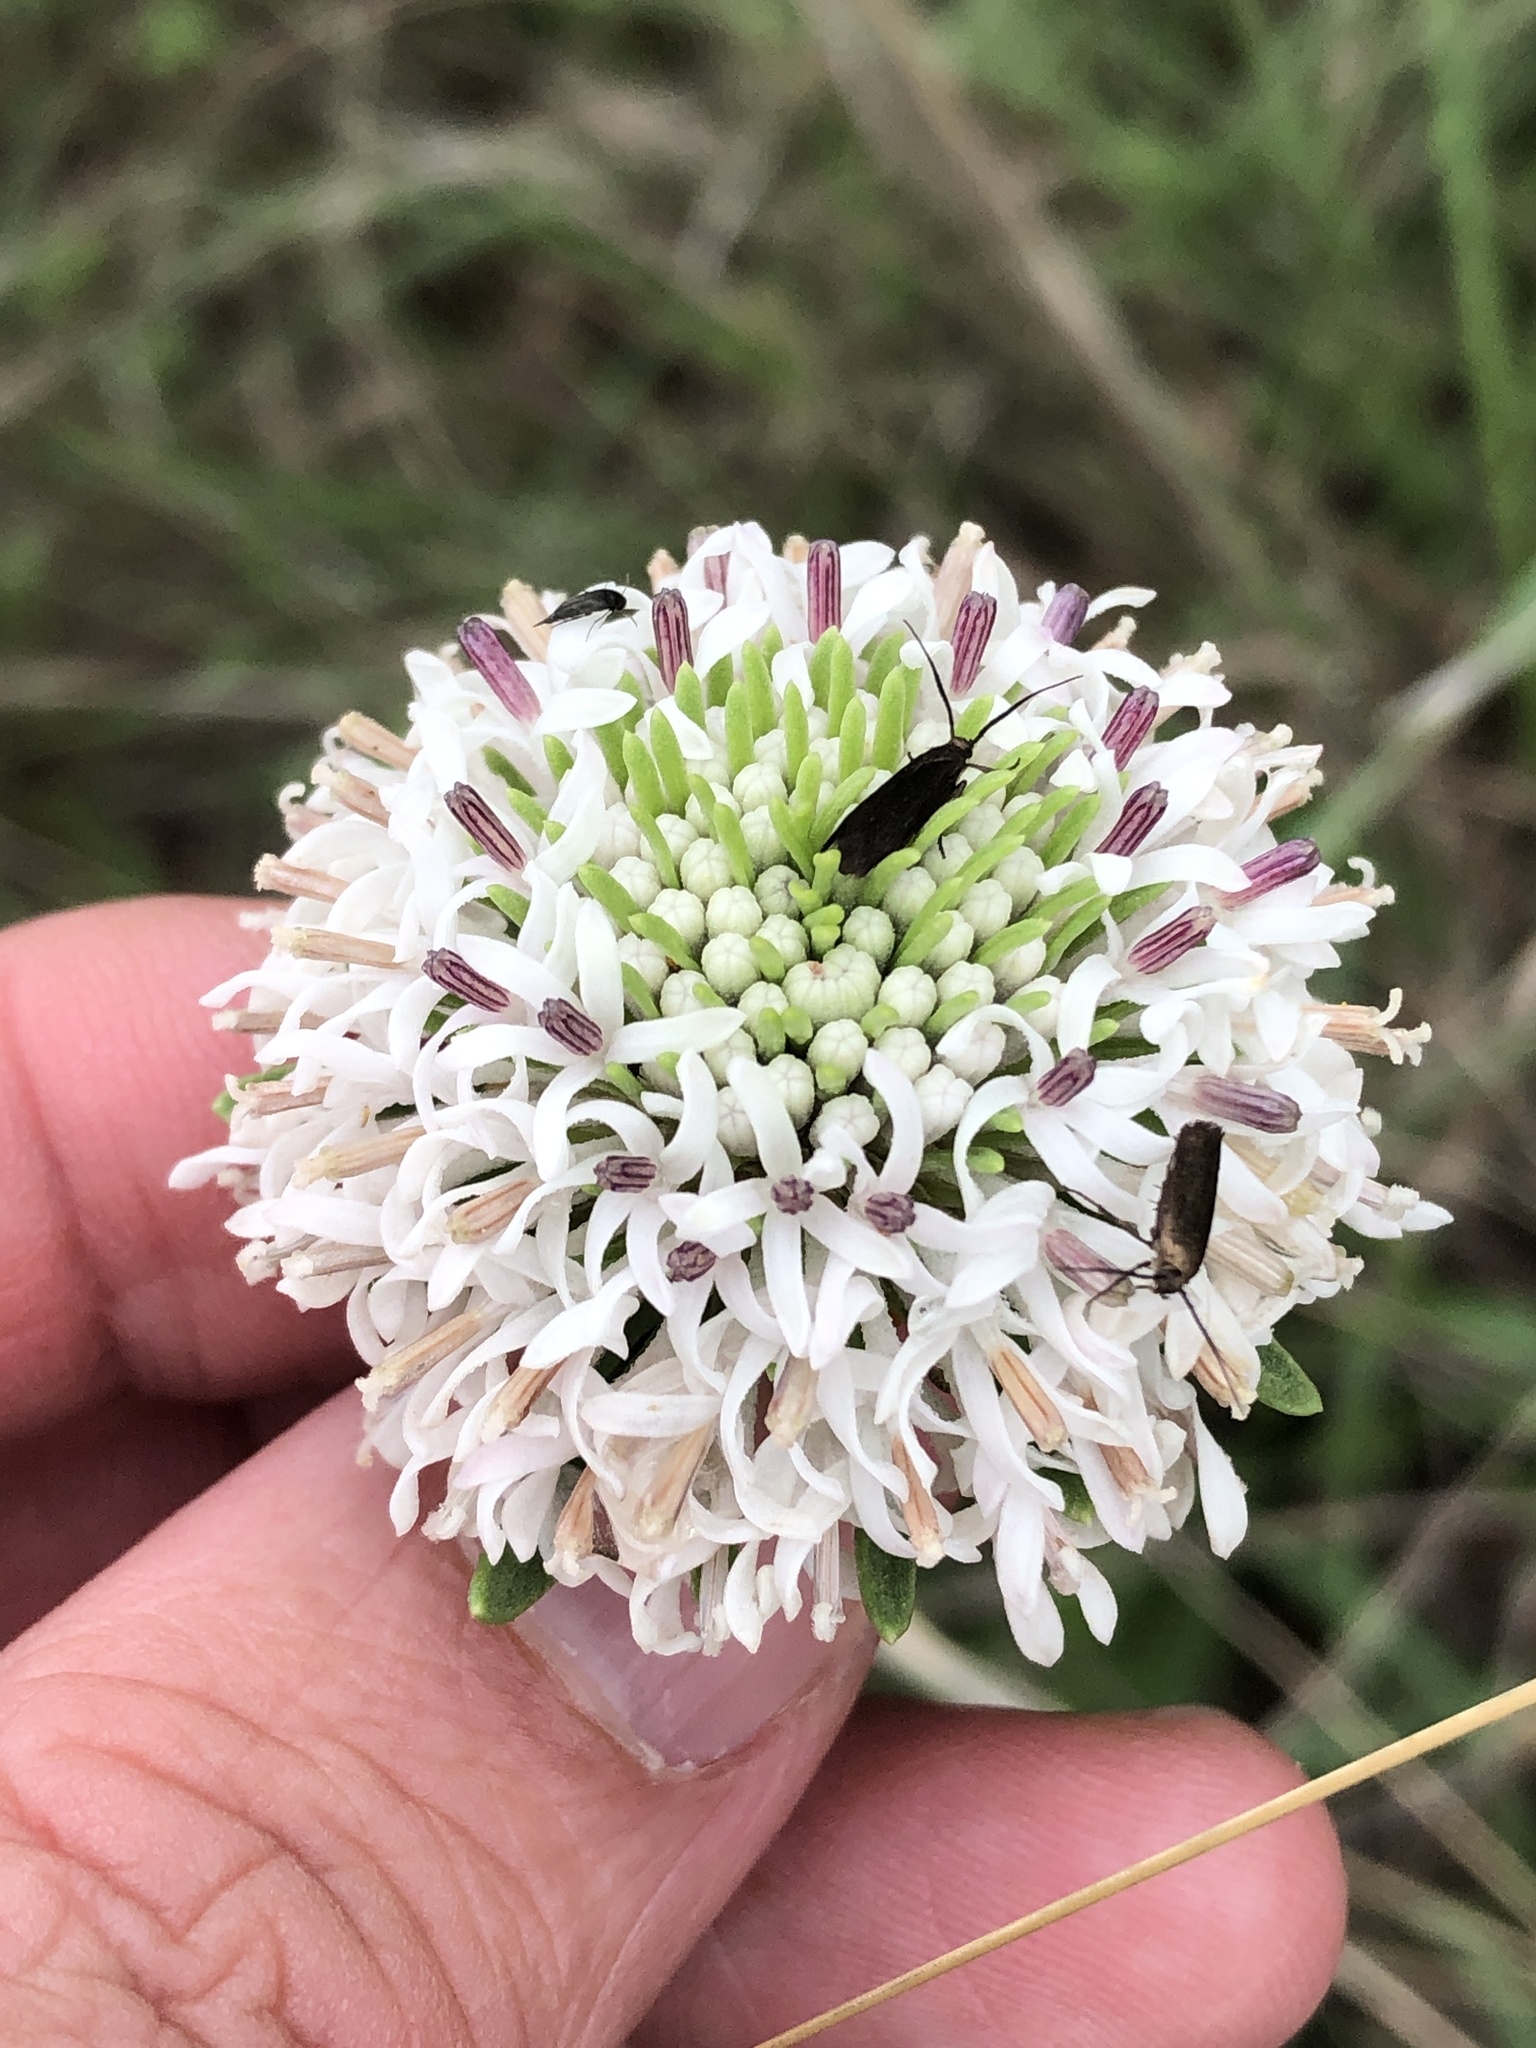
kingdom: Plantae
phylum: Tracheophyta
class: Magnoliopsida
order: Asterales
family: Asteraceae
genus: Marshallia
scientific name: Marshallia caespitosa
